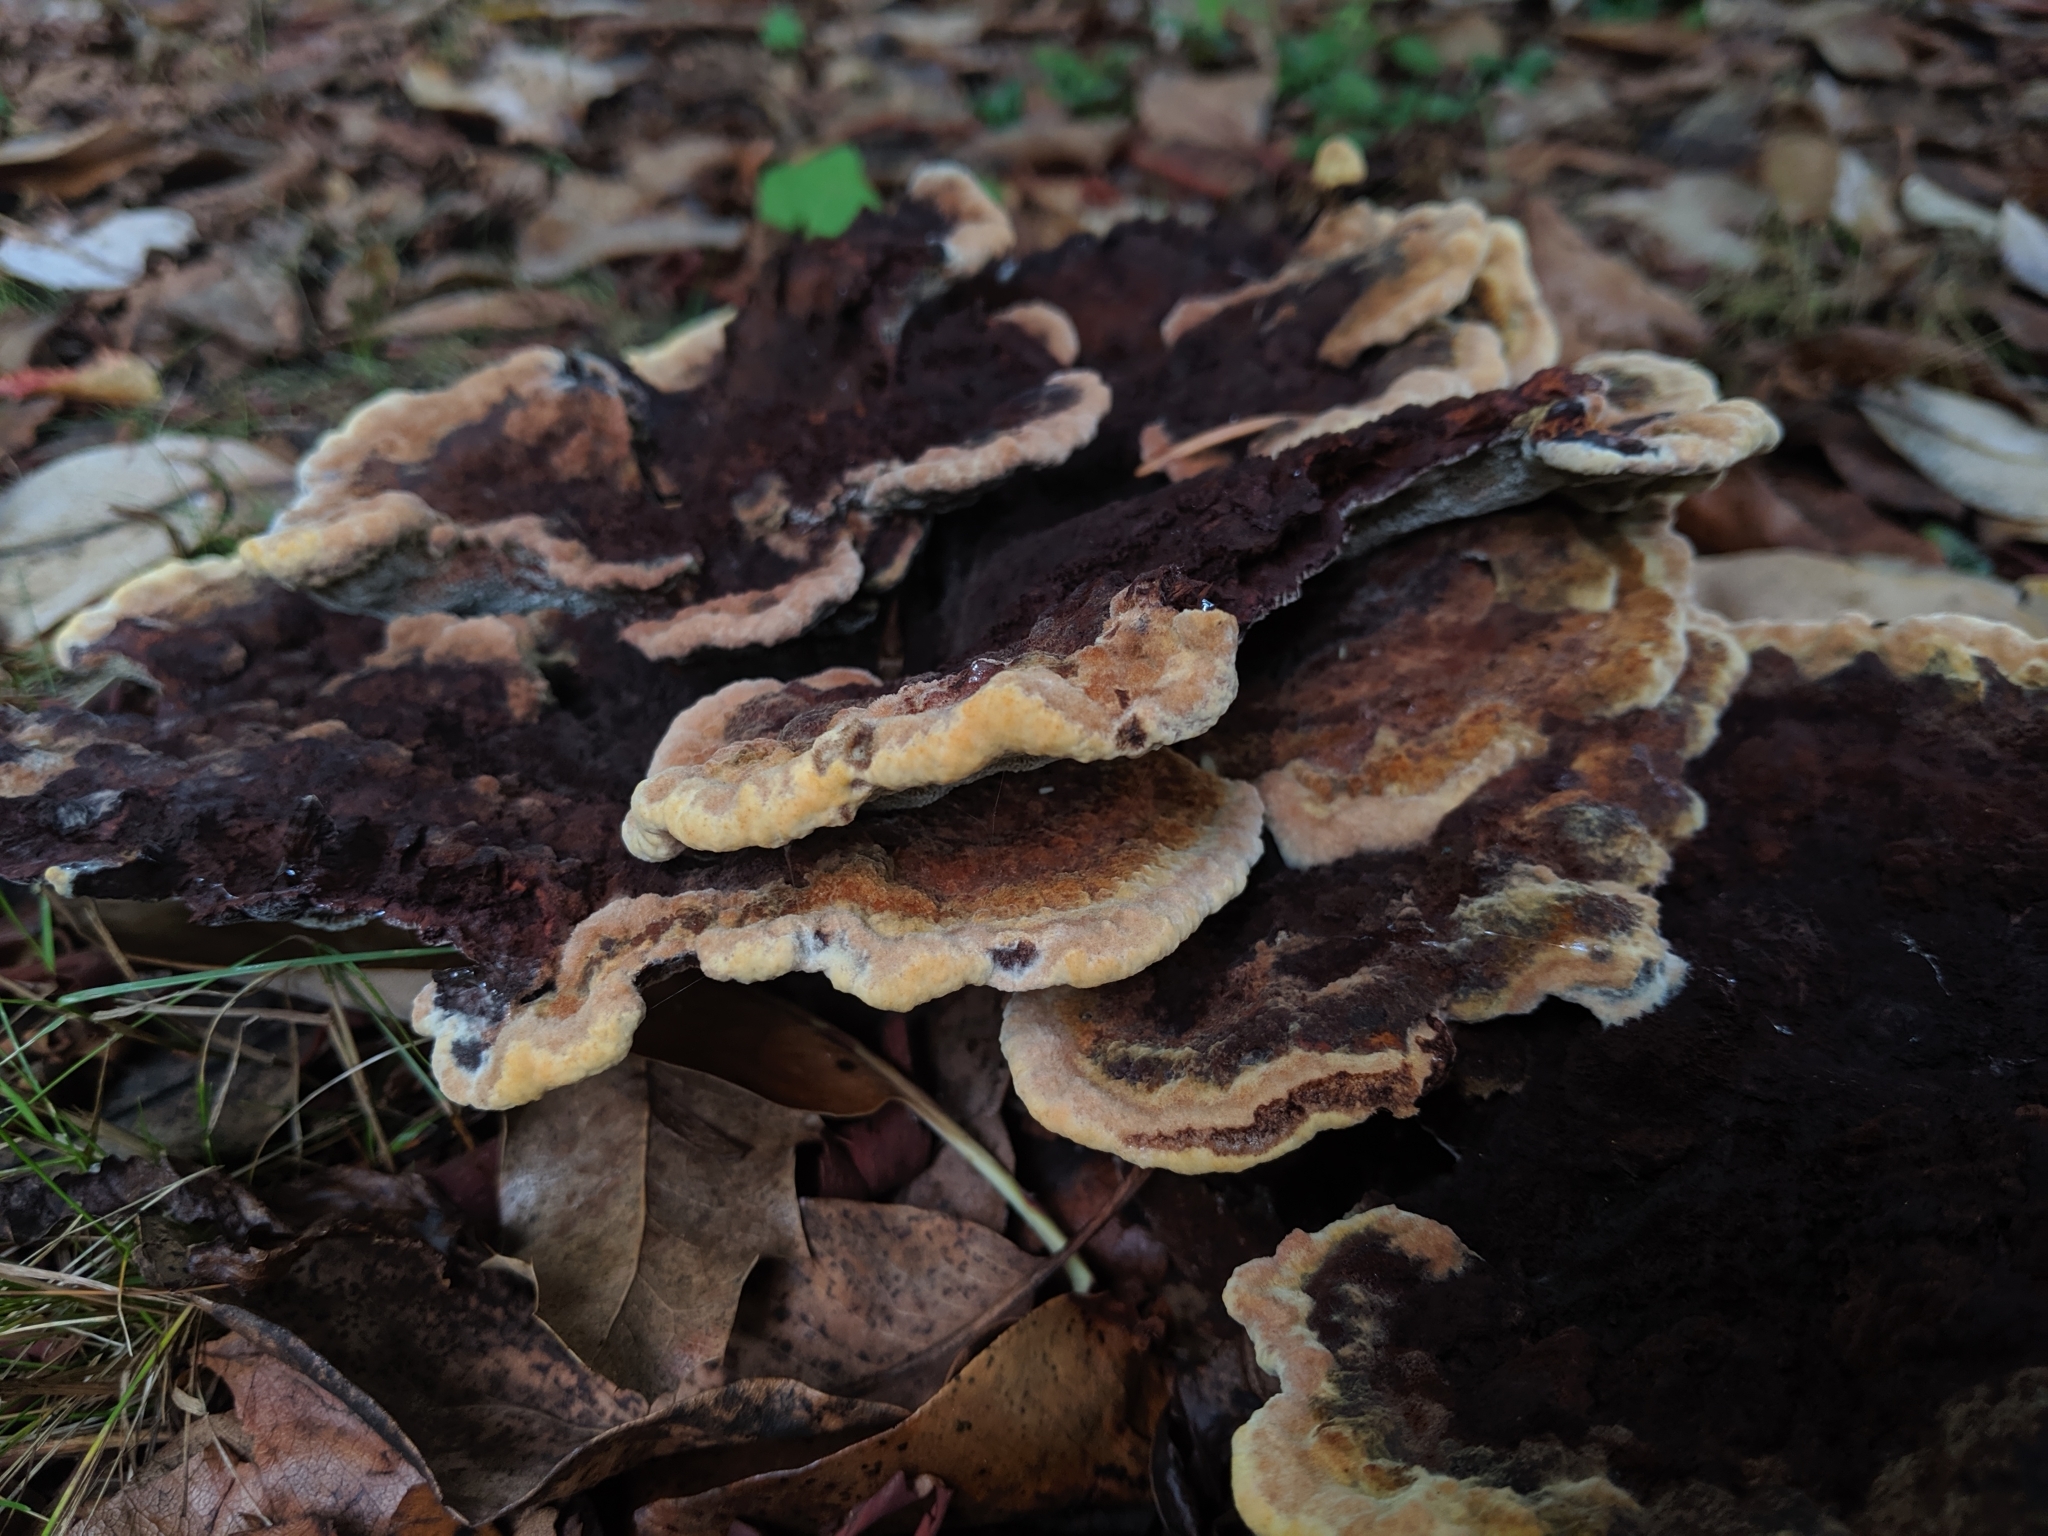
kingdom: Fungi
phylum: Basidiomycota
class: Agaricomycetes
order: Polyporales
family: Laetiporaceae
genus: Phaeolus
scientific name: Phaeolus schweinitzii
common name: Dyer's mazegill
